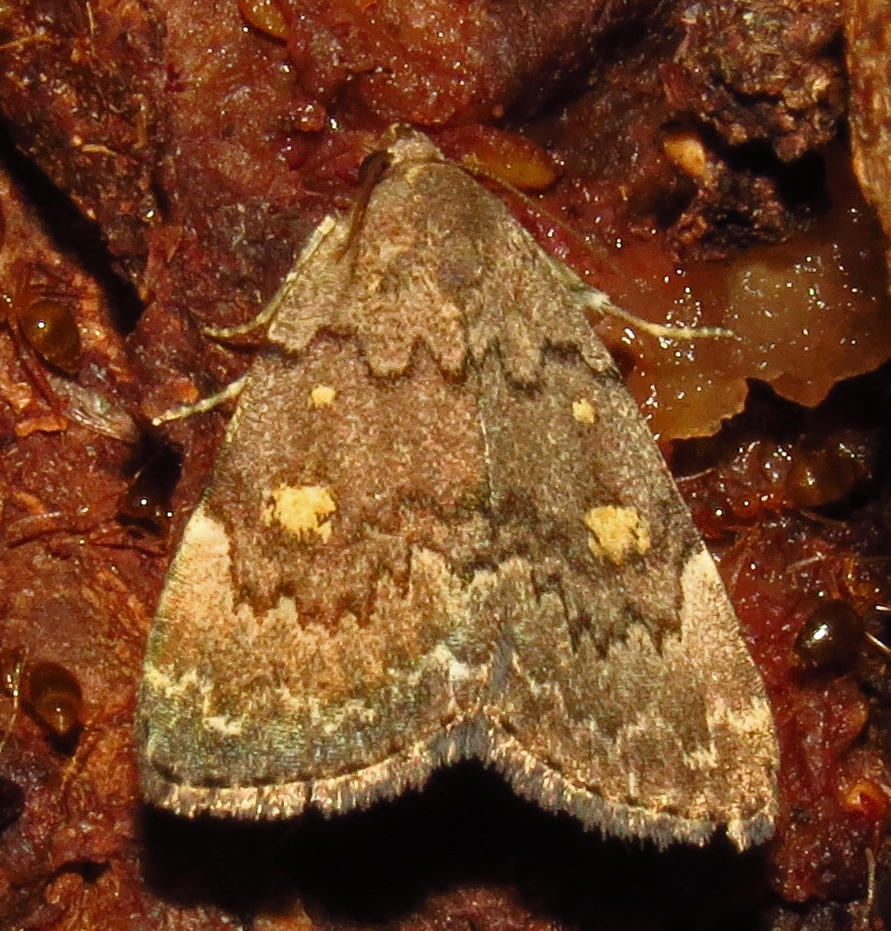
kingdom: Animalia
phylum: Arthropoda
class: Insecta
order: Lepidoptera
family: Erebidae
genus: Idia
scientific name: Idia aemula
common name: Common idia moth
